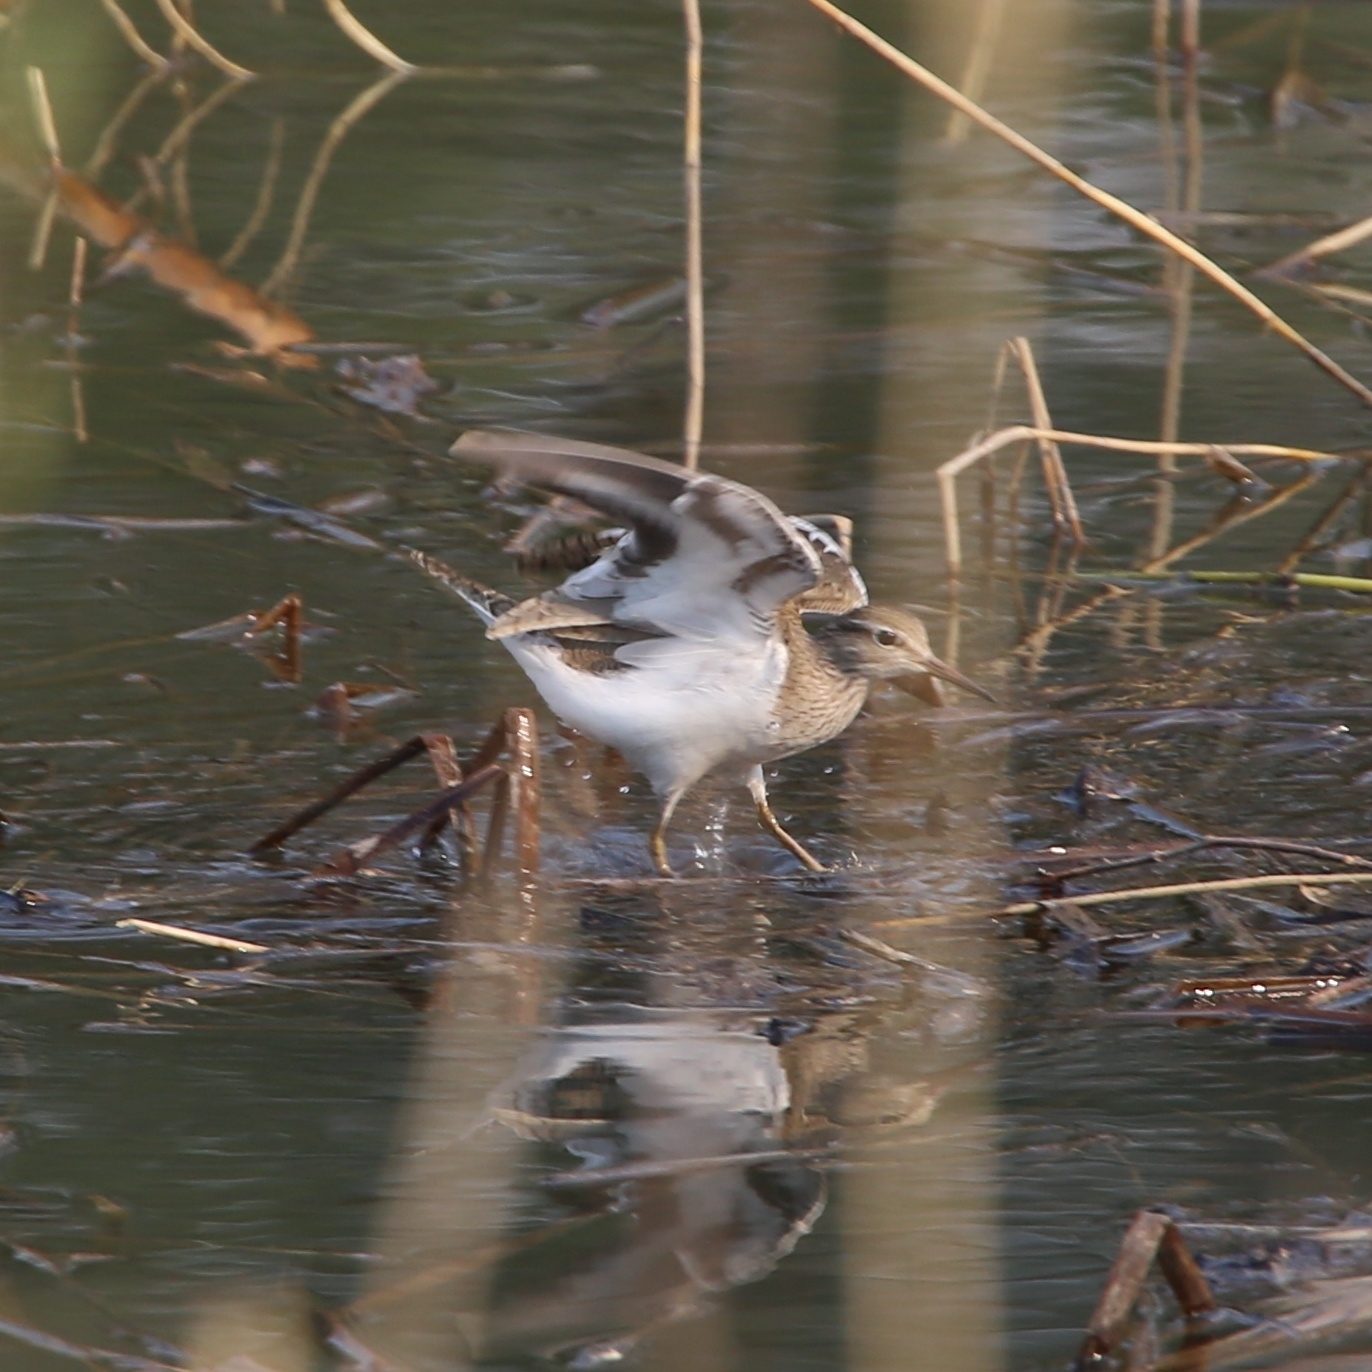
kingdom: Animalia
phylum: Chordata
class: Aves
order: Charadriiformes
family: Scolopacidae
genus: Actitis
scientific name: Actitis hypoleucos
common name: Common sandpiper
